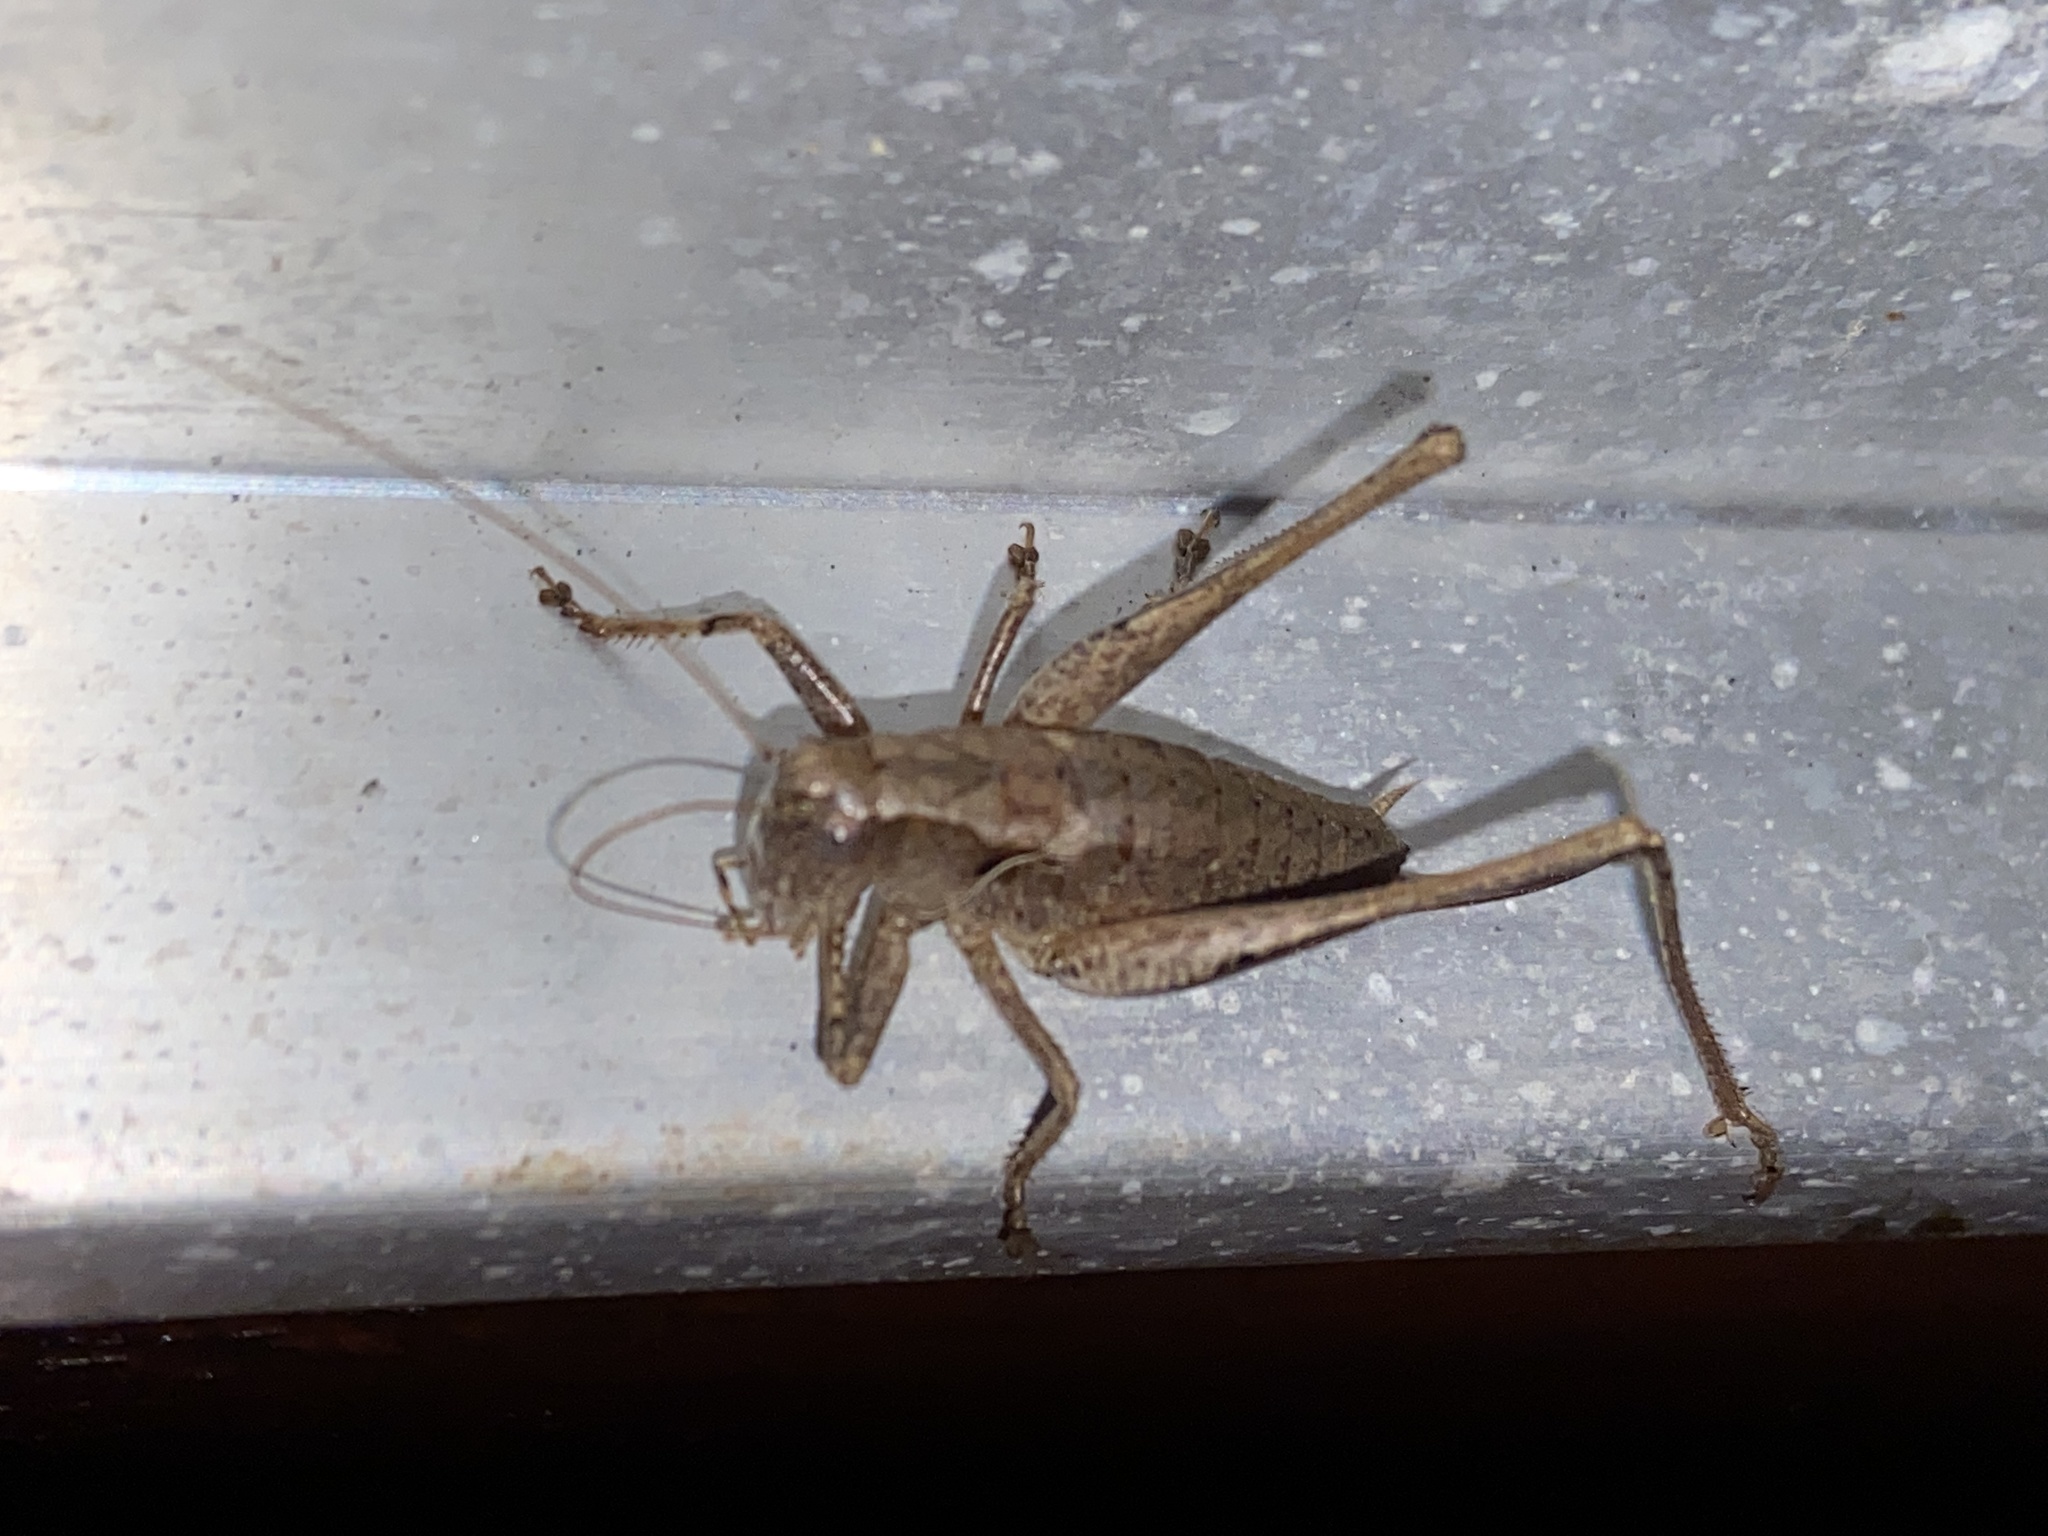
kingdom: Animalia
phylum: Arthropoda
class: Insecta
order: Orthoptera
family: Tettigoniidae
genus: Pholidoptera
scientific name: Pholidoptera griseoaptera
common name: Dark bush-cricket
